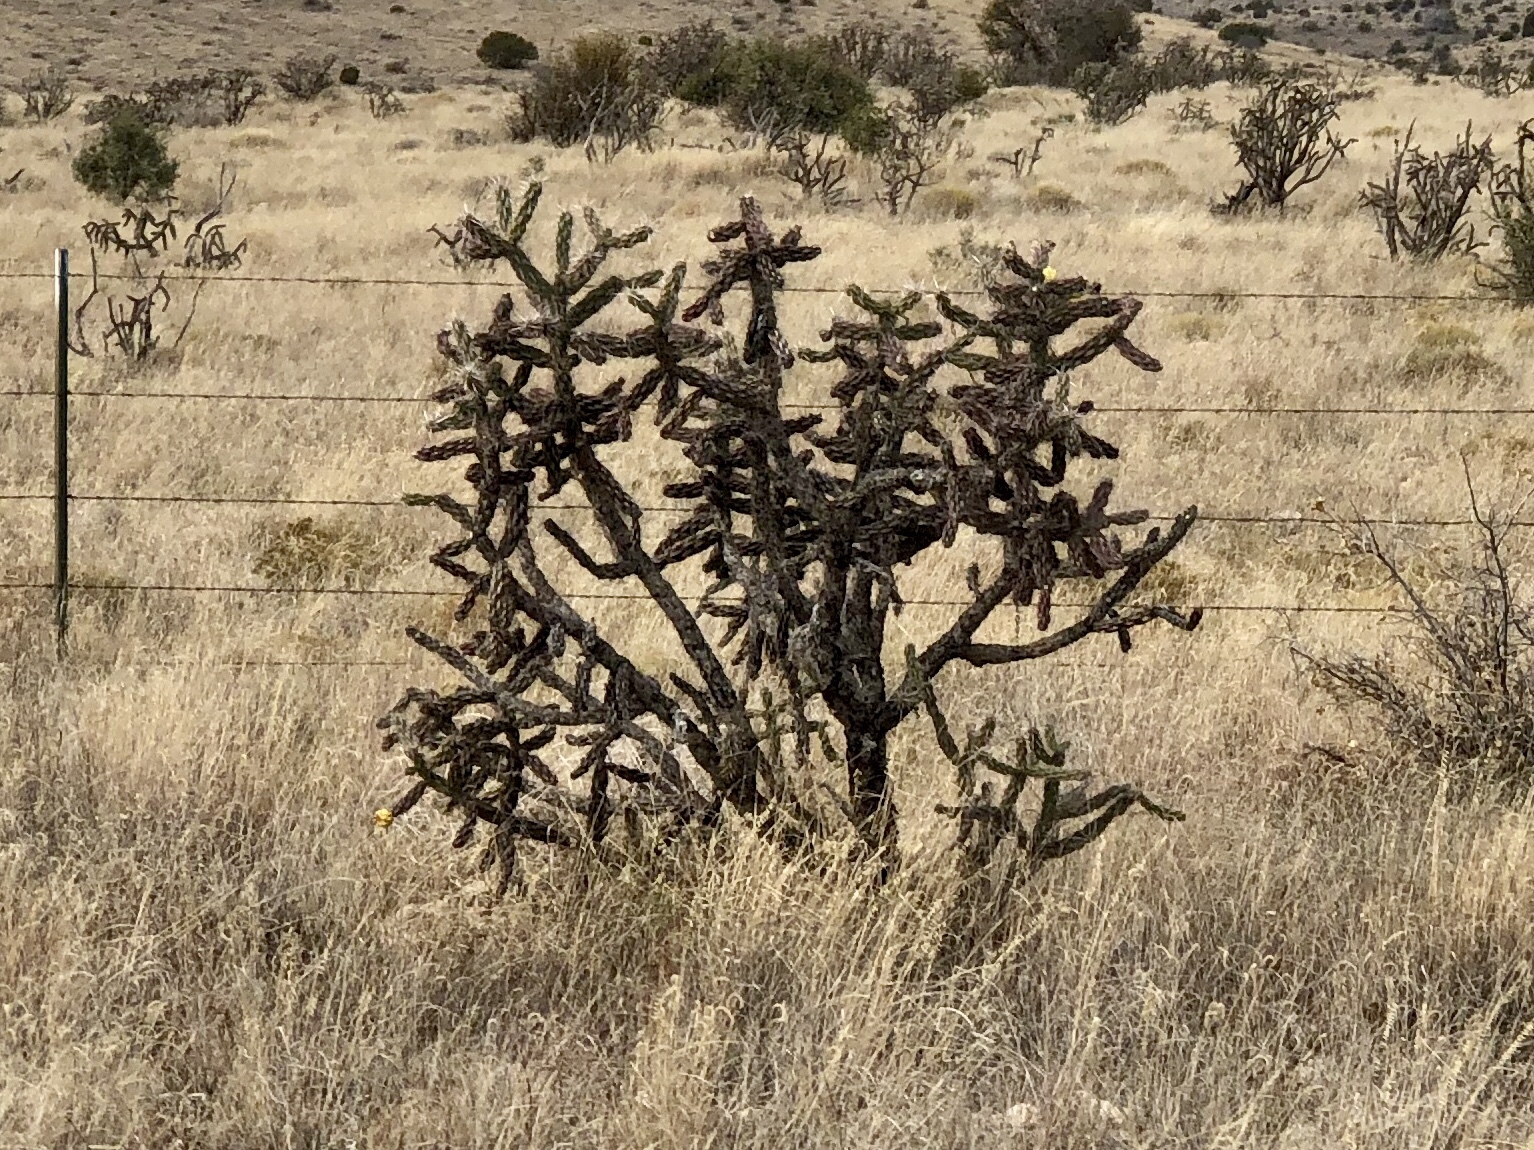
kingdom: Plantae
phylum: Tracheophyta
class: Magnoliopsida
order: Caryophyllales
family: Cactaceae
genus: Cylindropuntia
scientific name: Cylindropuntia imbricata
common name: Candelabrum cactus
